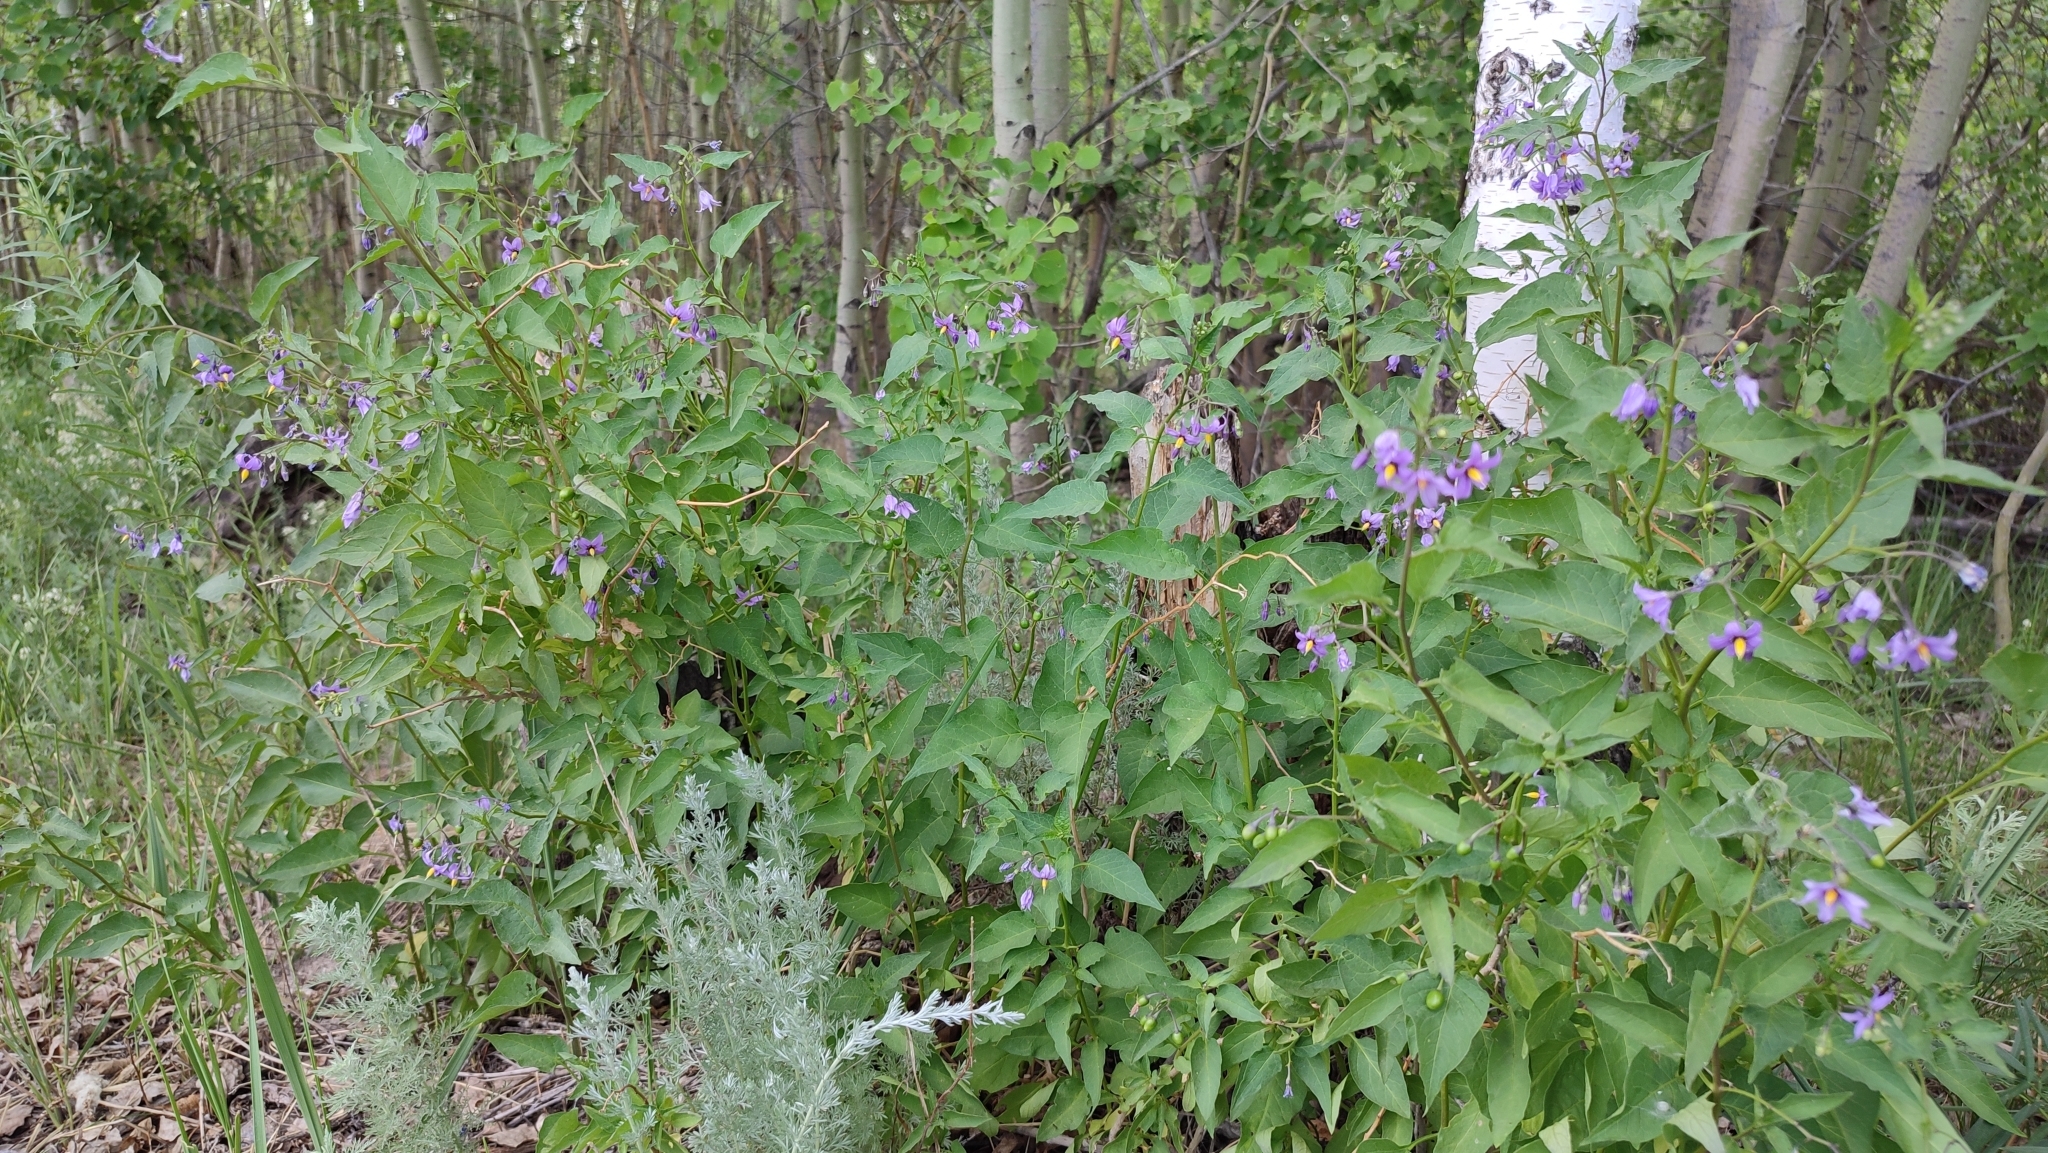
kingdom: Plantae
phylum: Tracheophyta
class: Magnoliopsida
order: Solanales
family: Solanaceae
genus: Solanum
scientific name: Solanum dulcamara
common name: Climbing nightshade
